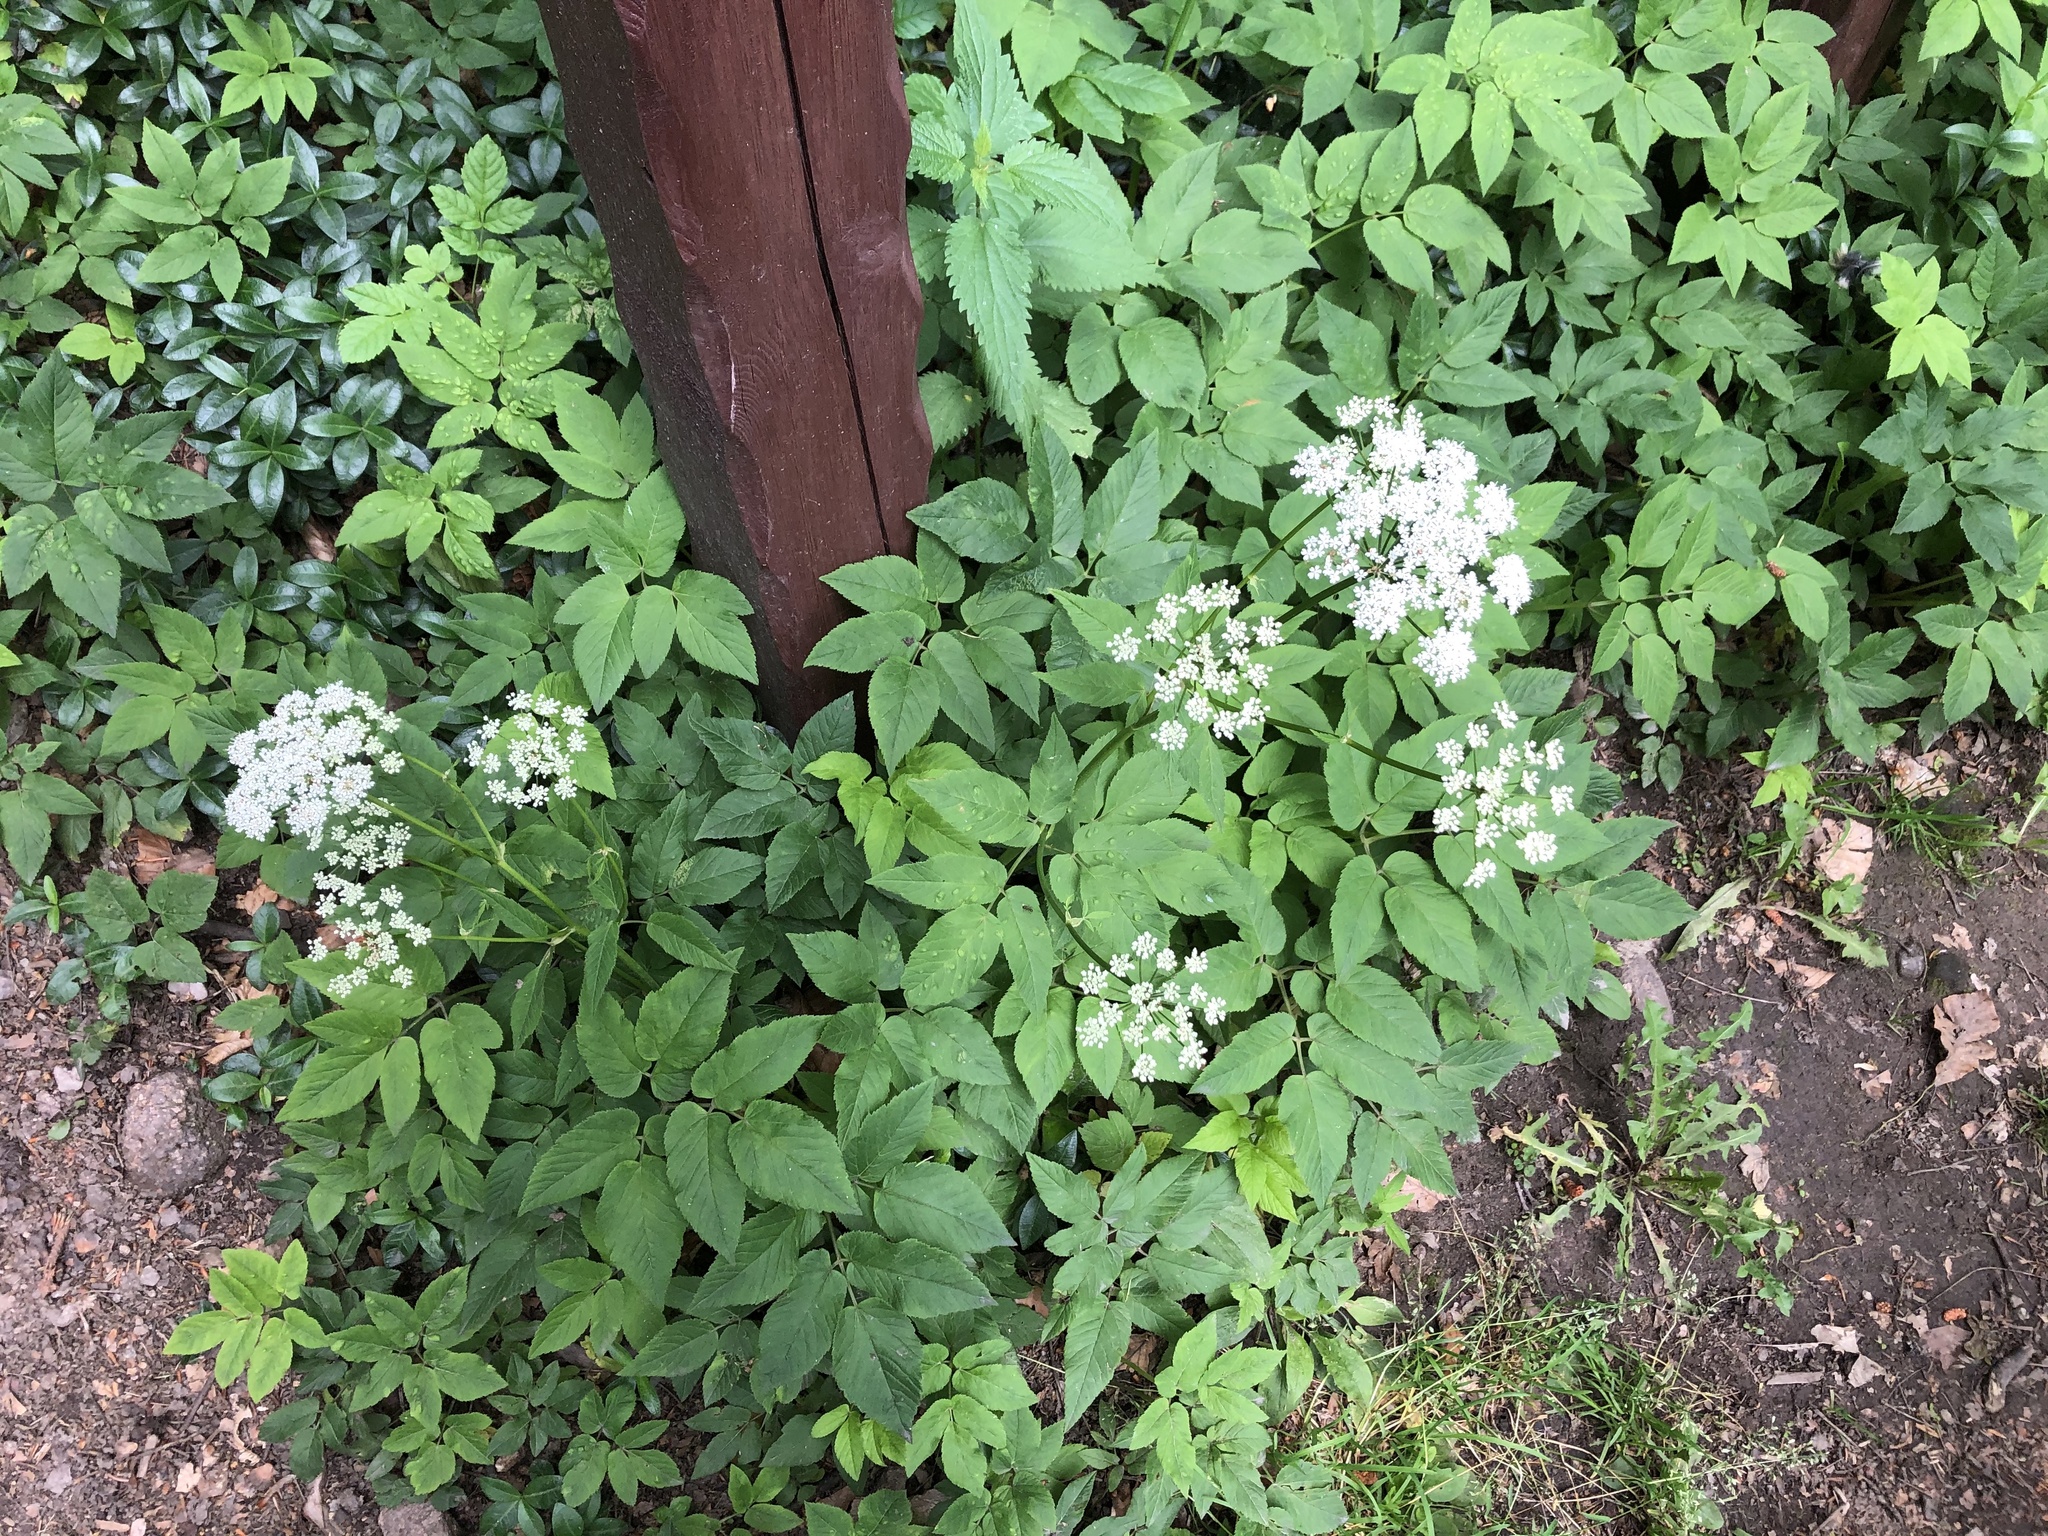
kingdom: Plantae
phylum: Tracheophyta
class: Magnoliopsida
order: Apiales
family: Apiaceae
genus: Aegopodium
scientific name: Aegopodium podagraria
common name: Ground-elder
